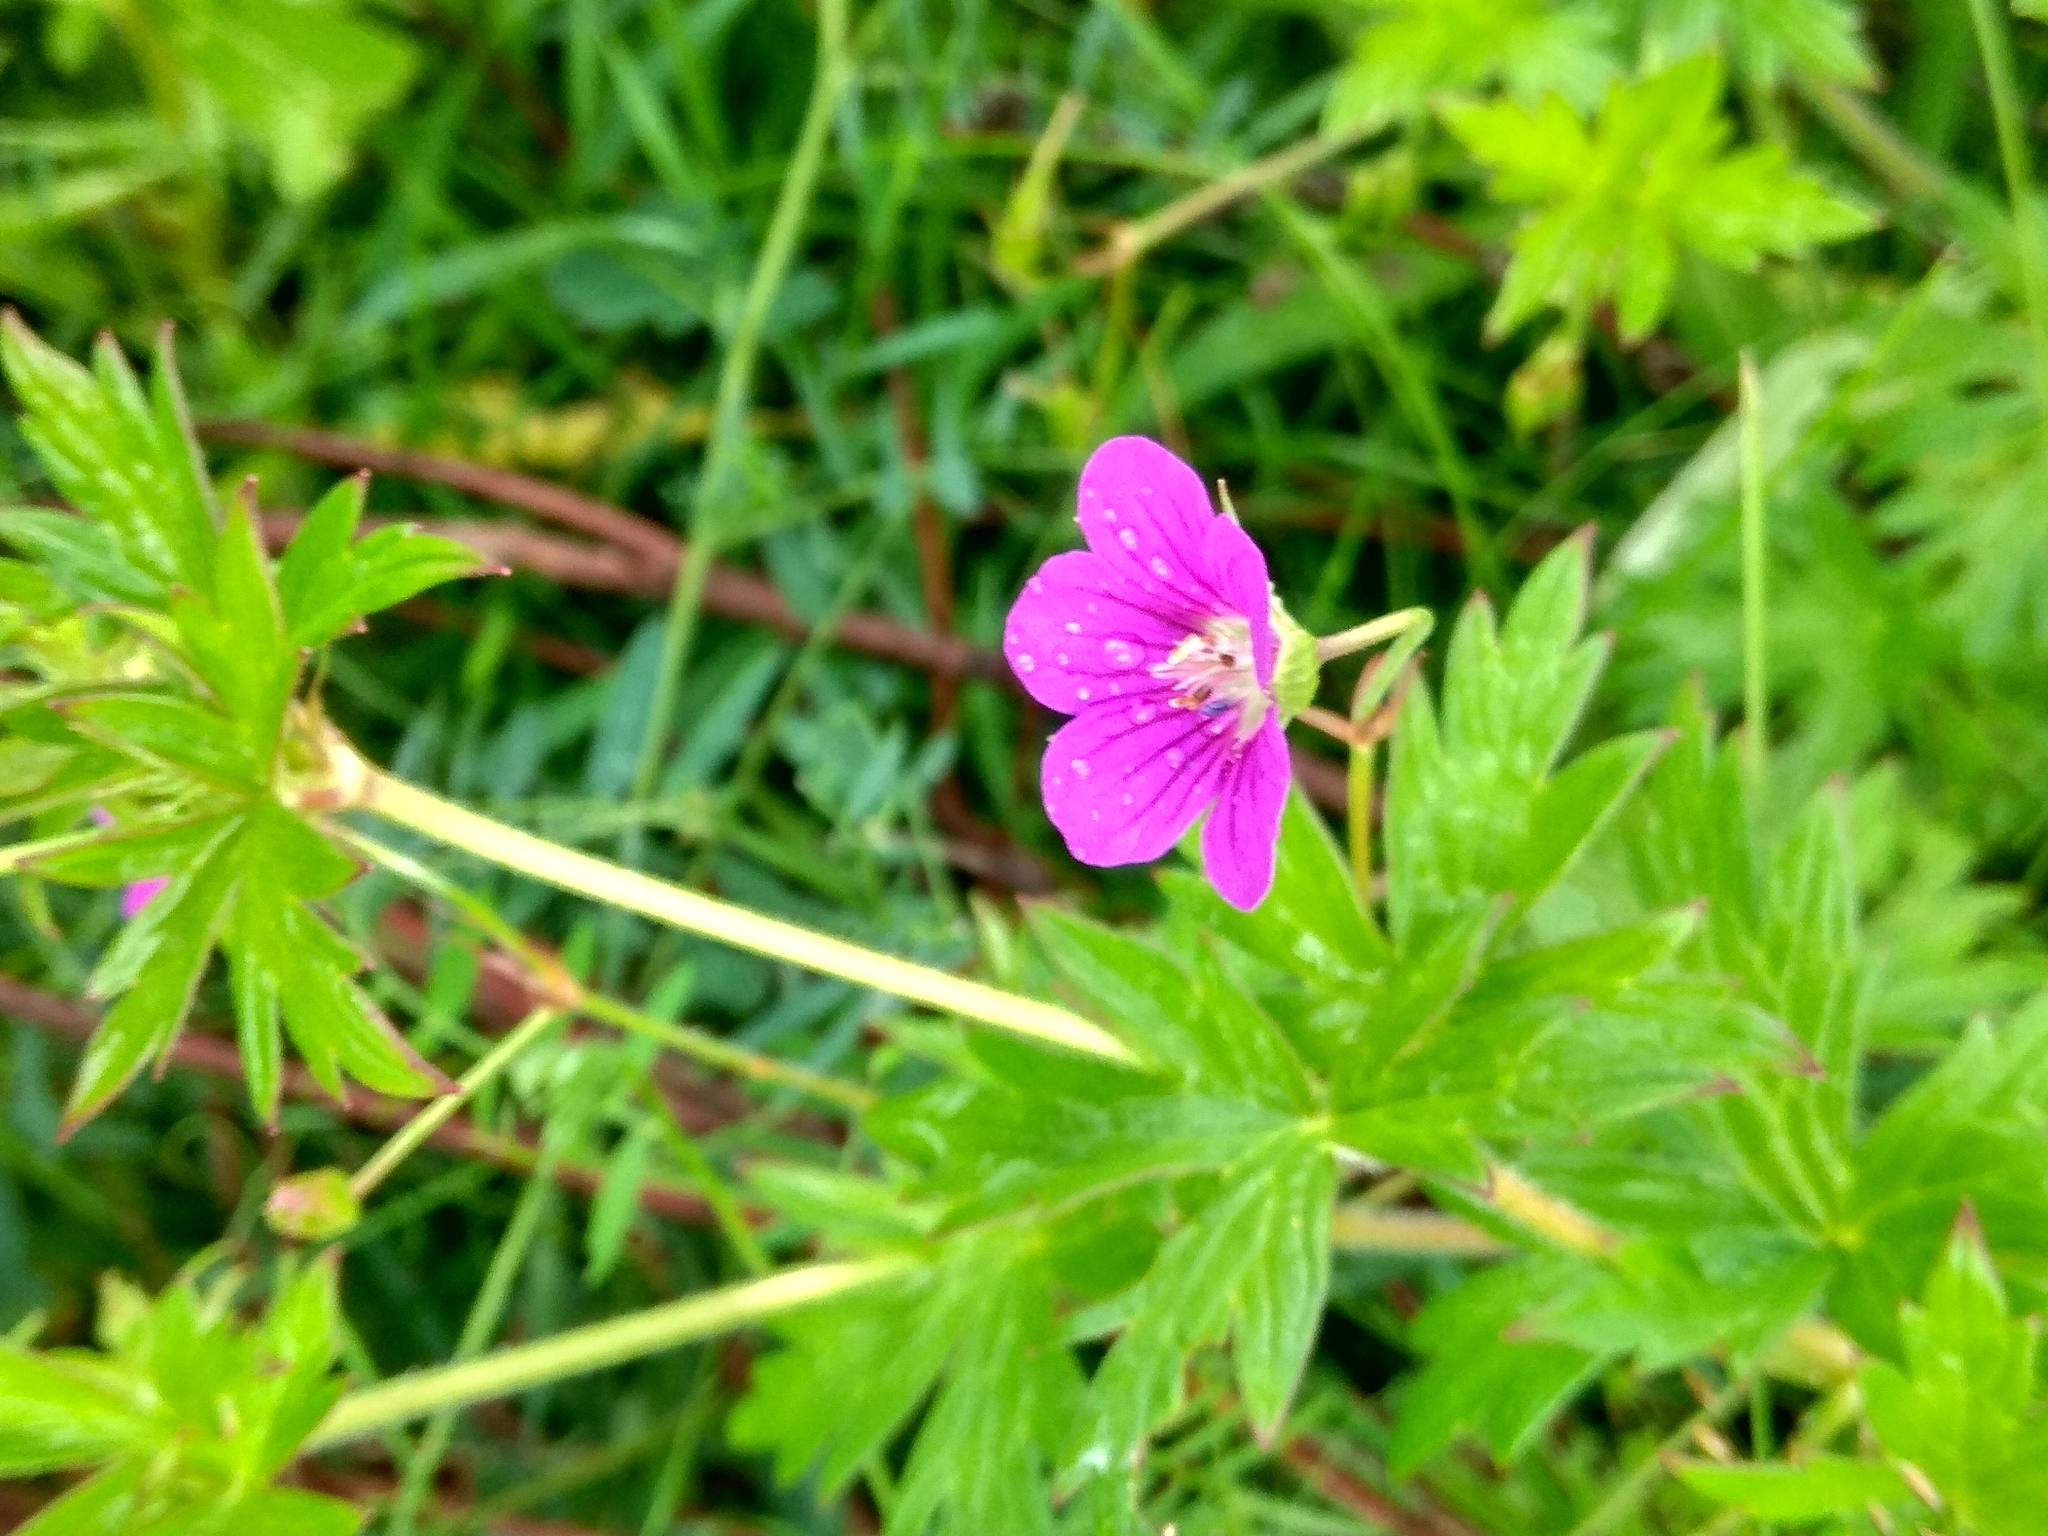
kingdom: Plantae
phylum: Tracheophyta
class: Magnoliopsida
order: Geraniales
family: Geraniaceae
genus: Geranium
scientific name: Geranium palustre
